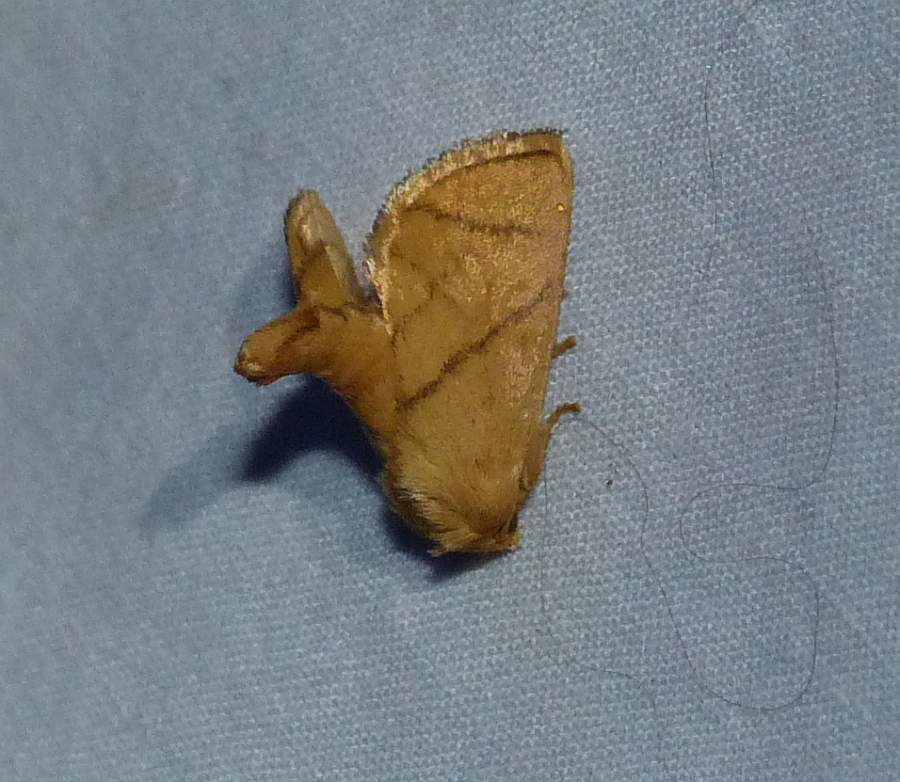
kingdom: Animalia
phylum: Arthropoda
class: Insecta
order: Lepidoptera
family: Limacodidae
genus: Apoda
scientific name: Apoda y-inversa
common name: Yellow-collared slug moth
